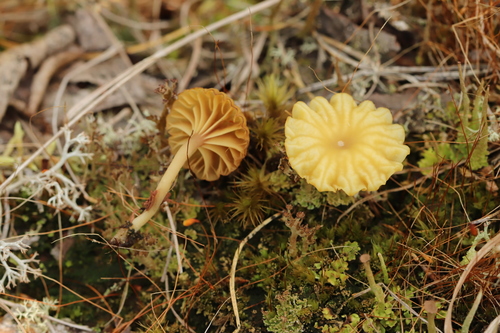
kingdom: Fungi
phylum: Basidiomycota
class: Agaricomycetes
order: Agaricales
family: Hygrophoraceae
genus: Lichenomphalia
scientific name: Lichenomphalia umbellifera
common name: Heath navel
